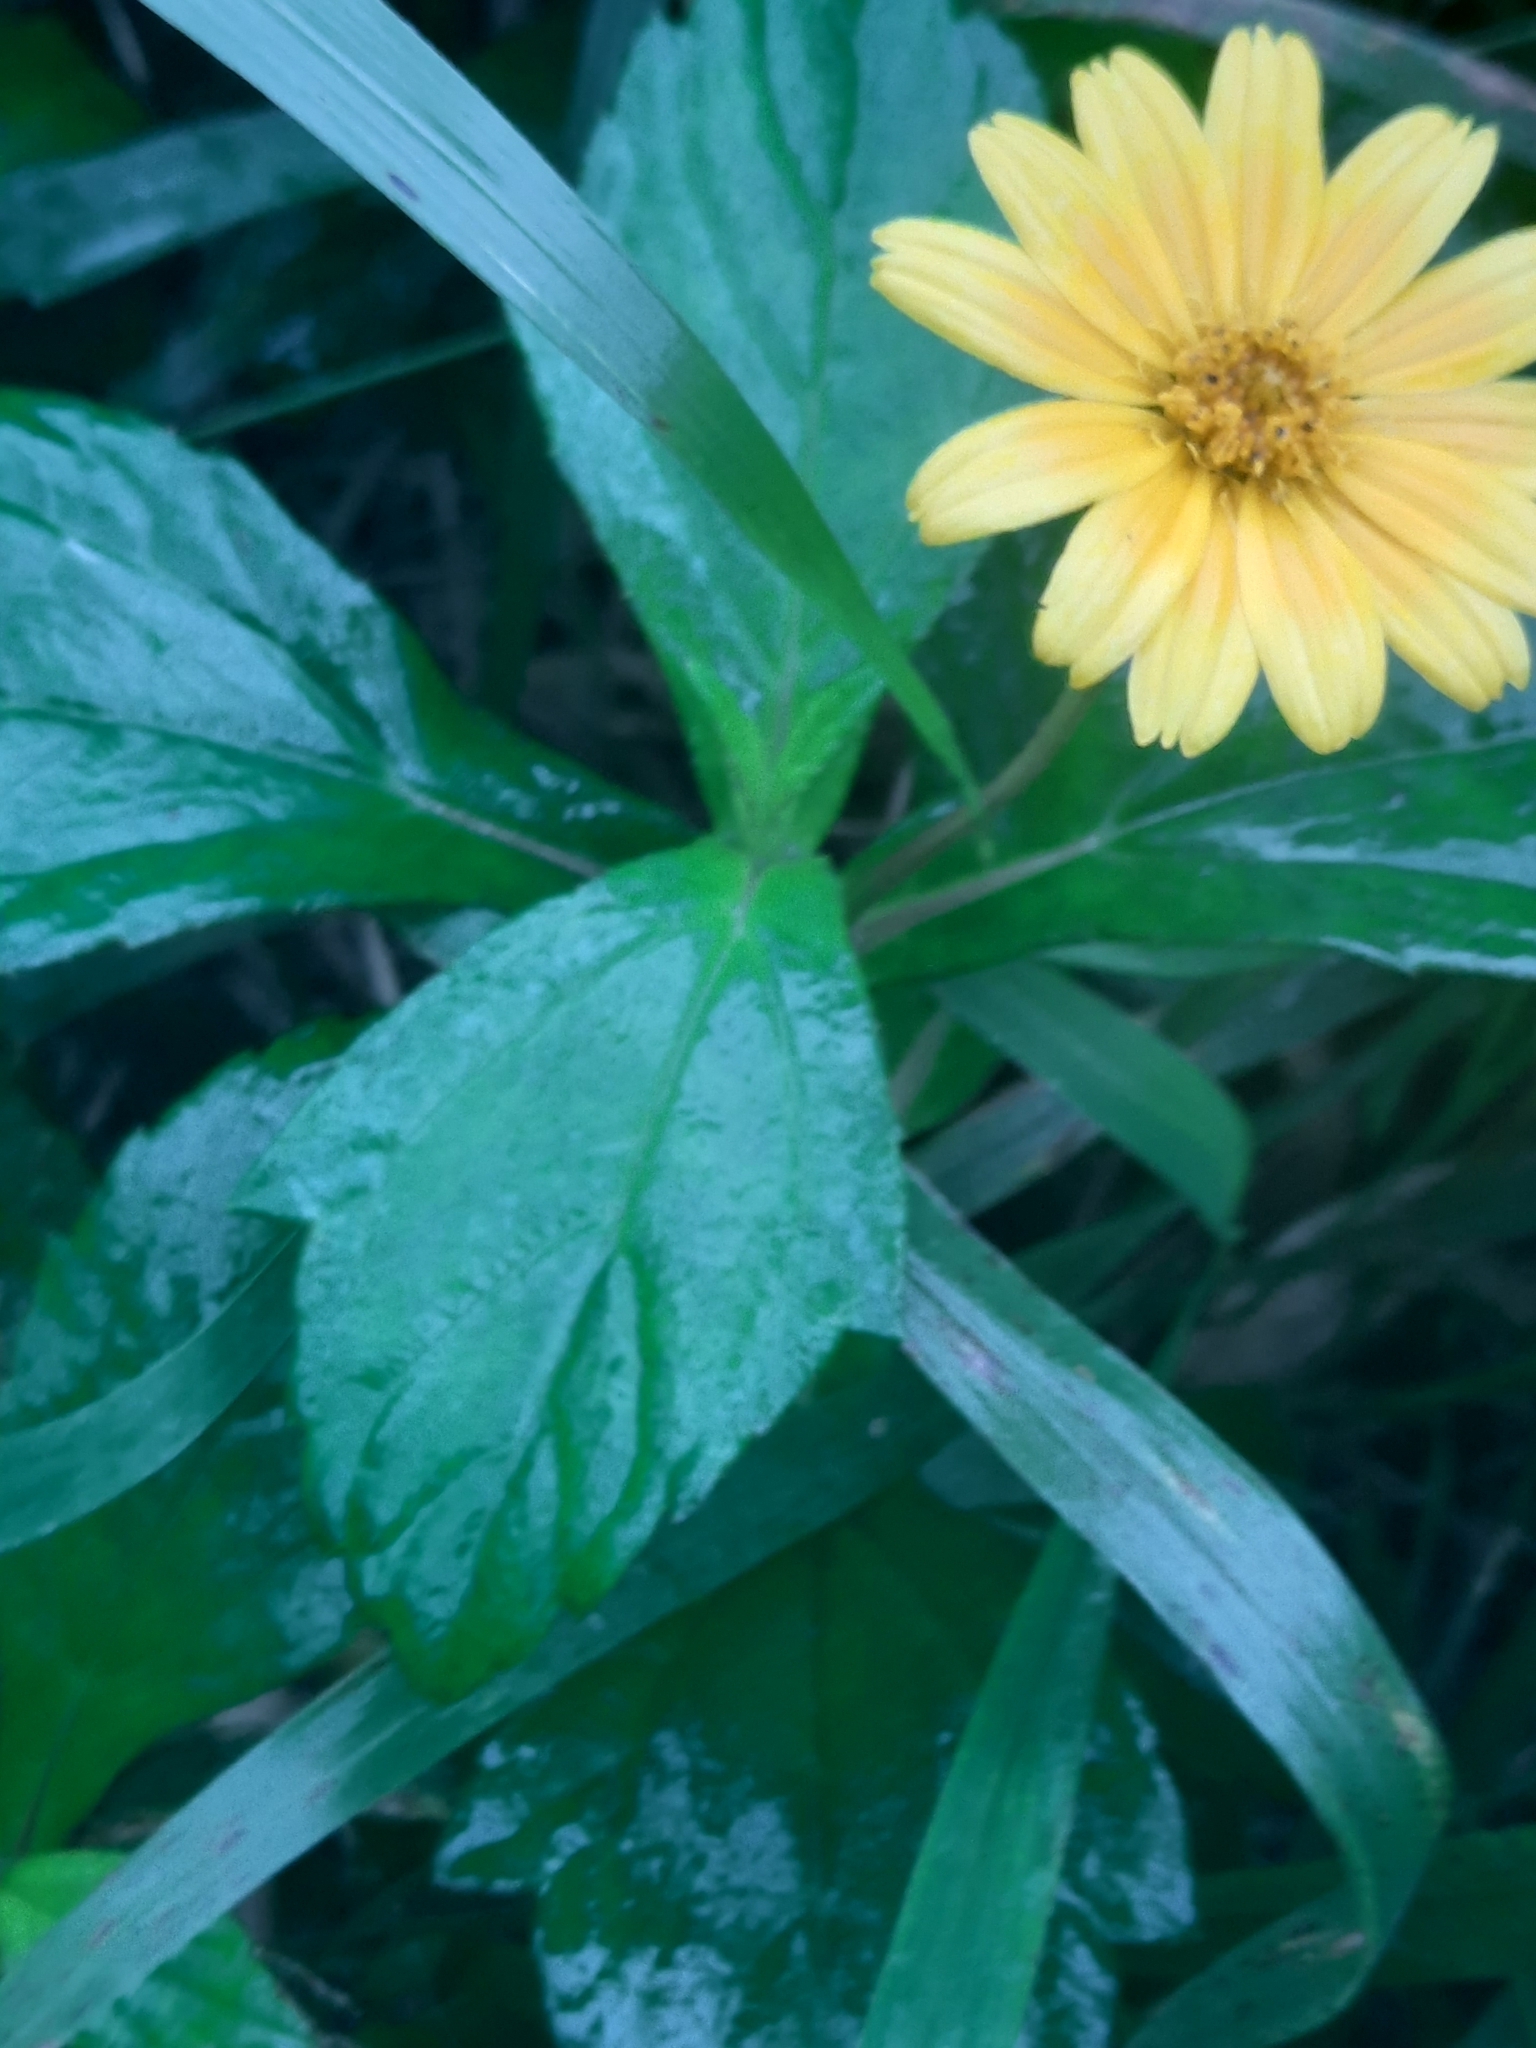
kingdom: Plantae
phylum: Tracheophyta
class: Magnoliopsida
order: Asterales
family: Asteraceae
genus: Sphagneticola
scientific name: Sphagneticola trilobata
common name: Bay biscayne creeping-oxeye
